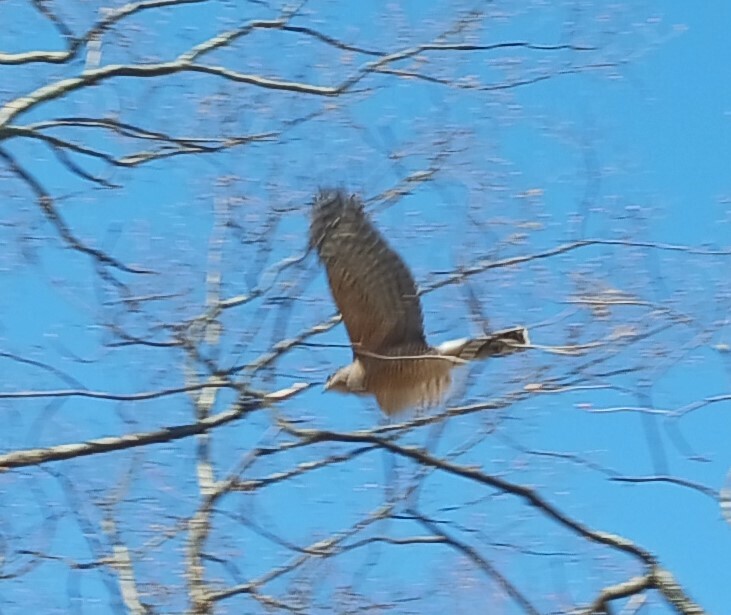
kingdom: Animalia
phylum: Chordata
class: Aves
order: Accipitriformes
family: Accipitridae
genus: Accipiter
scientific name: Accipiter cooperii
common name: Cooper's hawk
